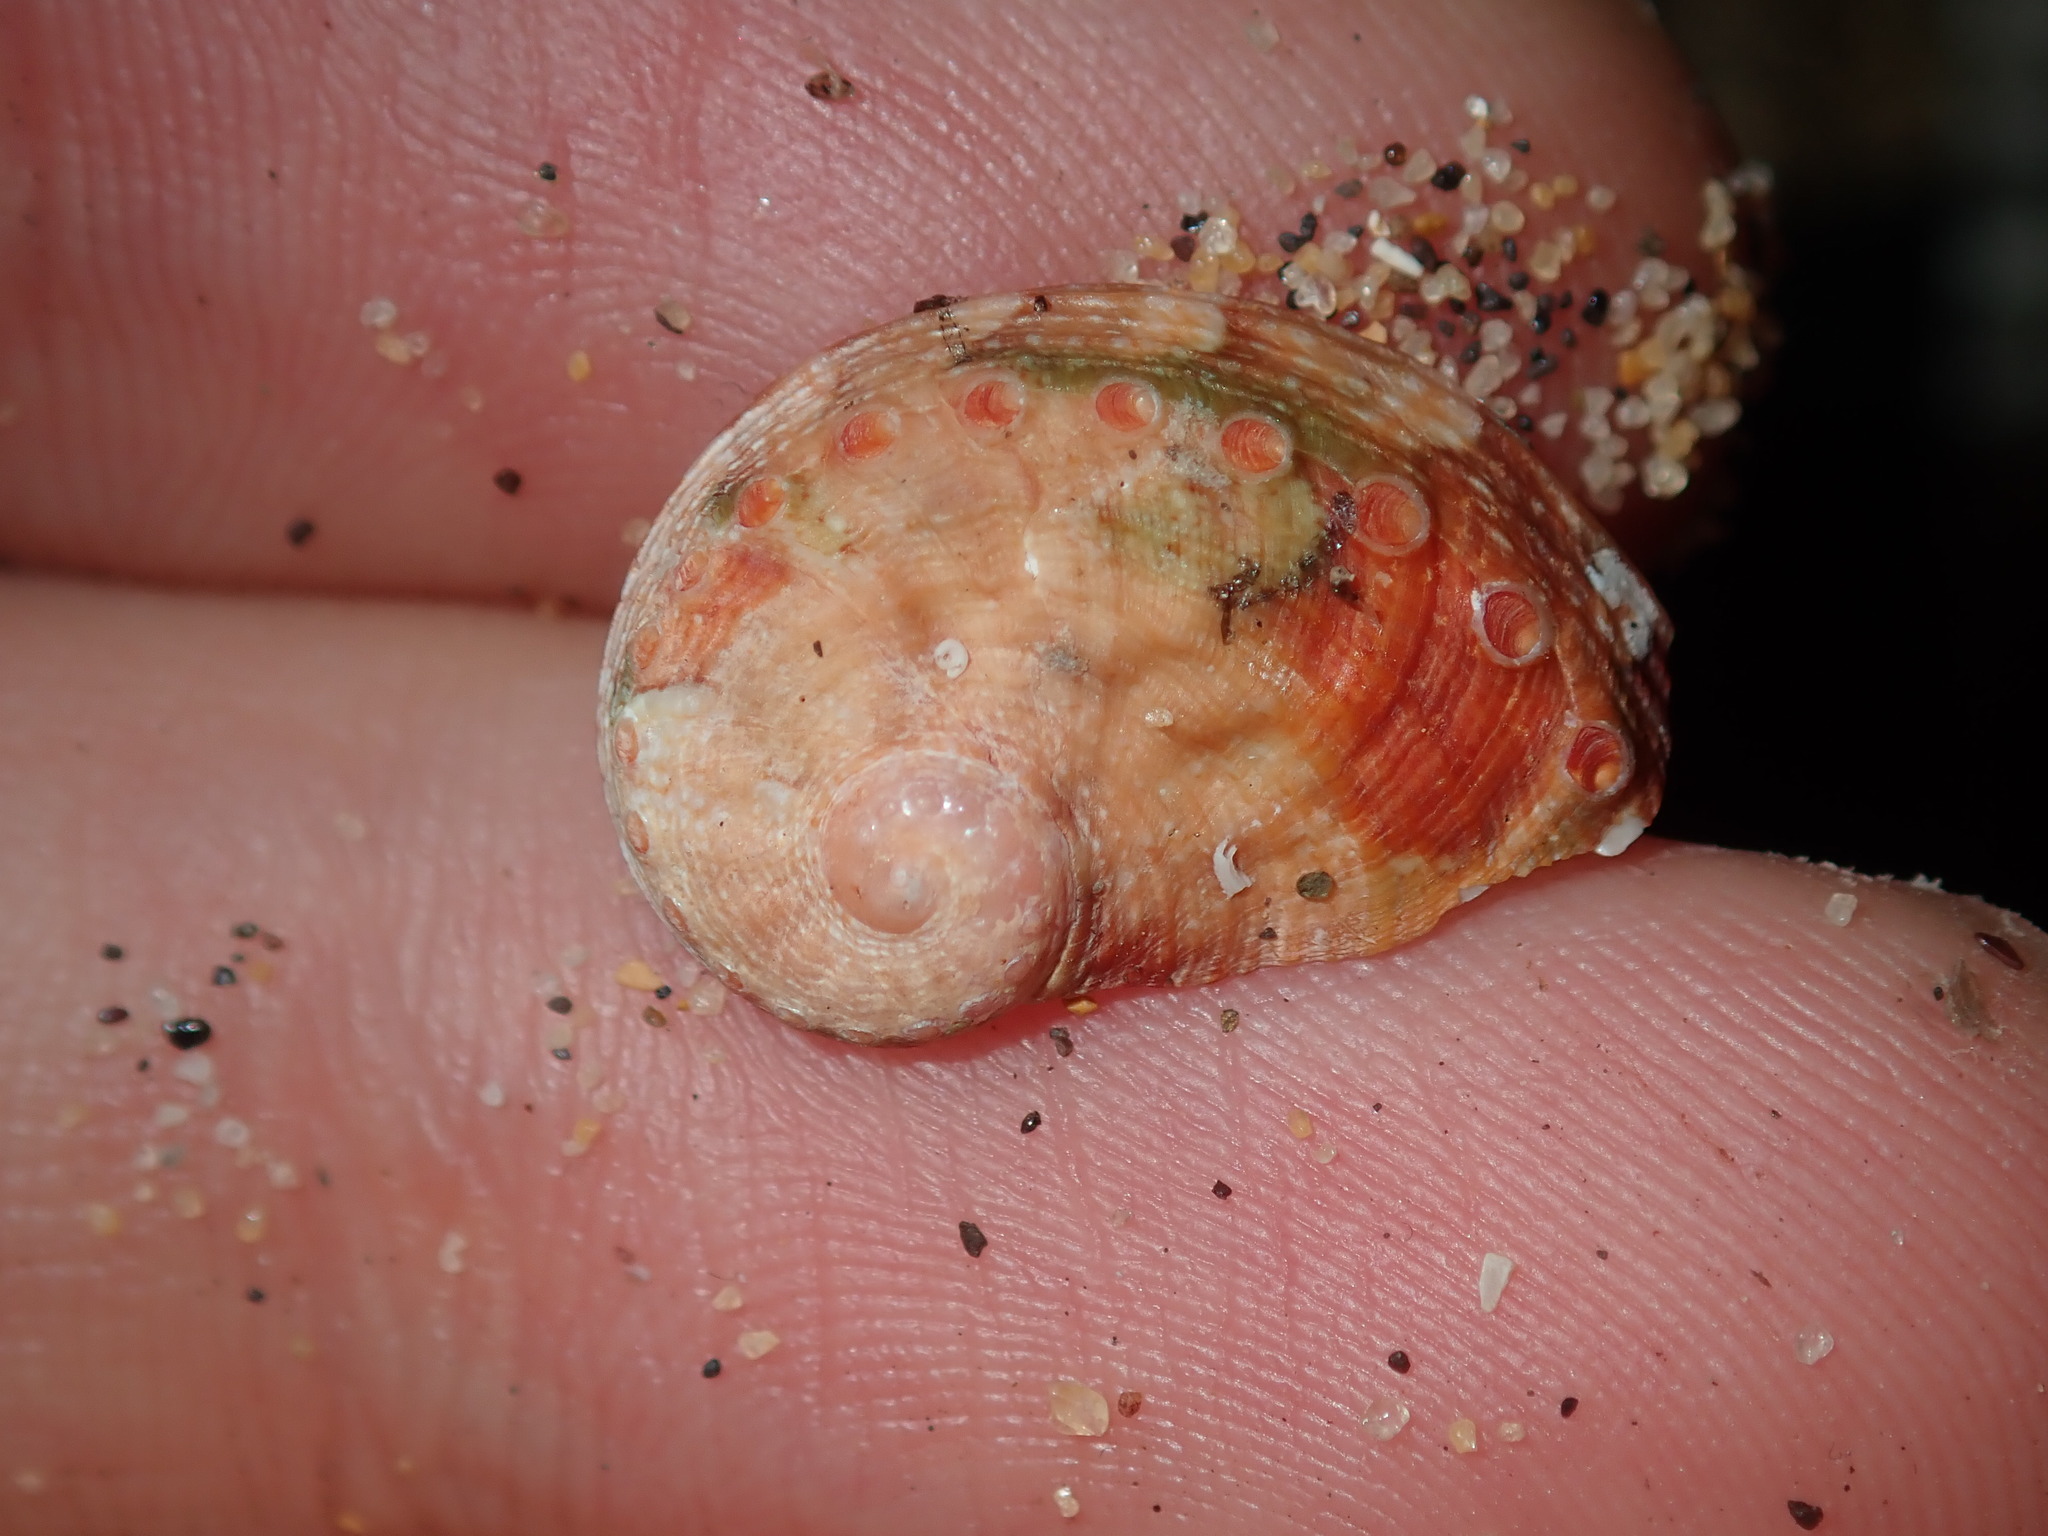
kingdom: Animalia
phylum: Mollusca
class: Gastropoda
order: Lepetellida
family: Haliotidae
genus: Haliotis
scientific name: Haliotis coccoradiata
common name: Reddish-rayed abalone
